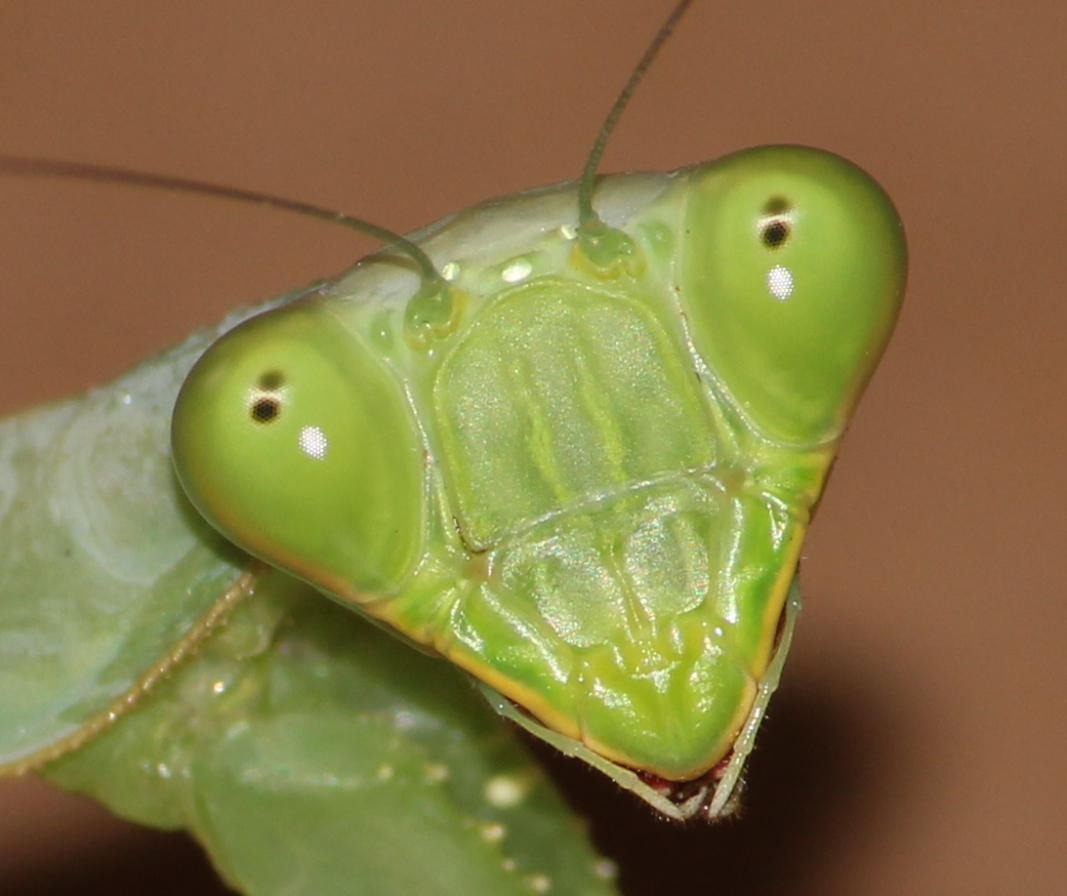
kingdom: Animalia
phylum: Arthropoda
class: Insecta
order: Mantodea
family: Mantidae
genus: Sphodromantis
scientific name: Sphodromantis gastrica
